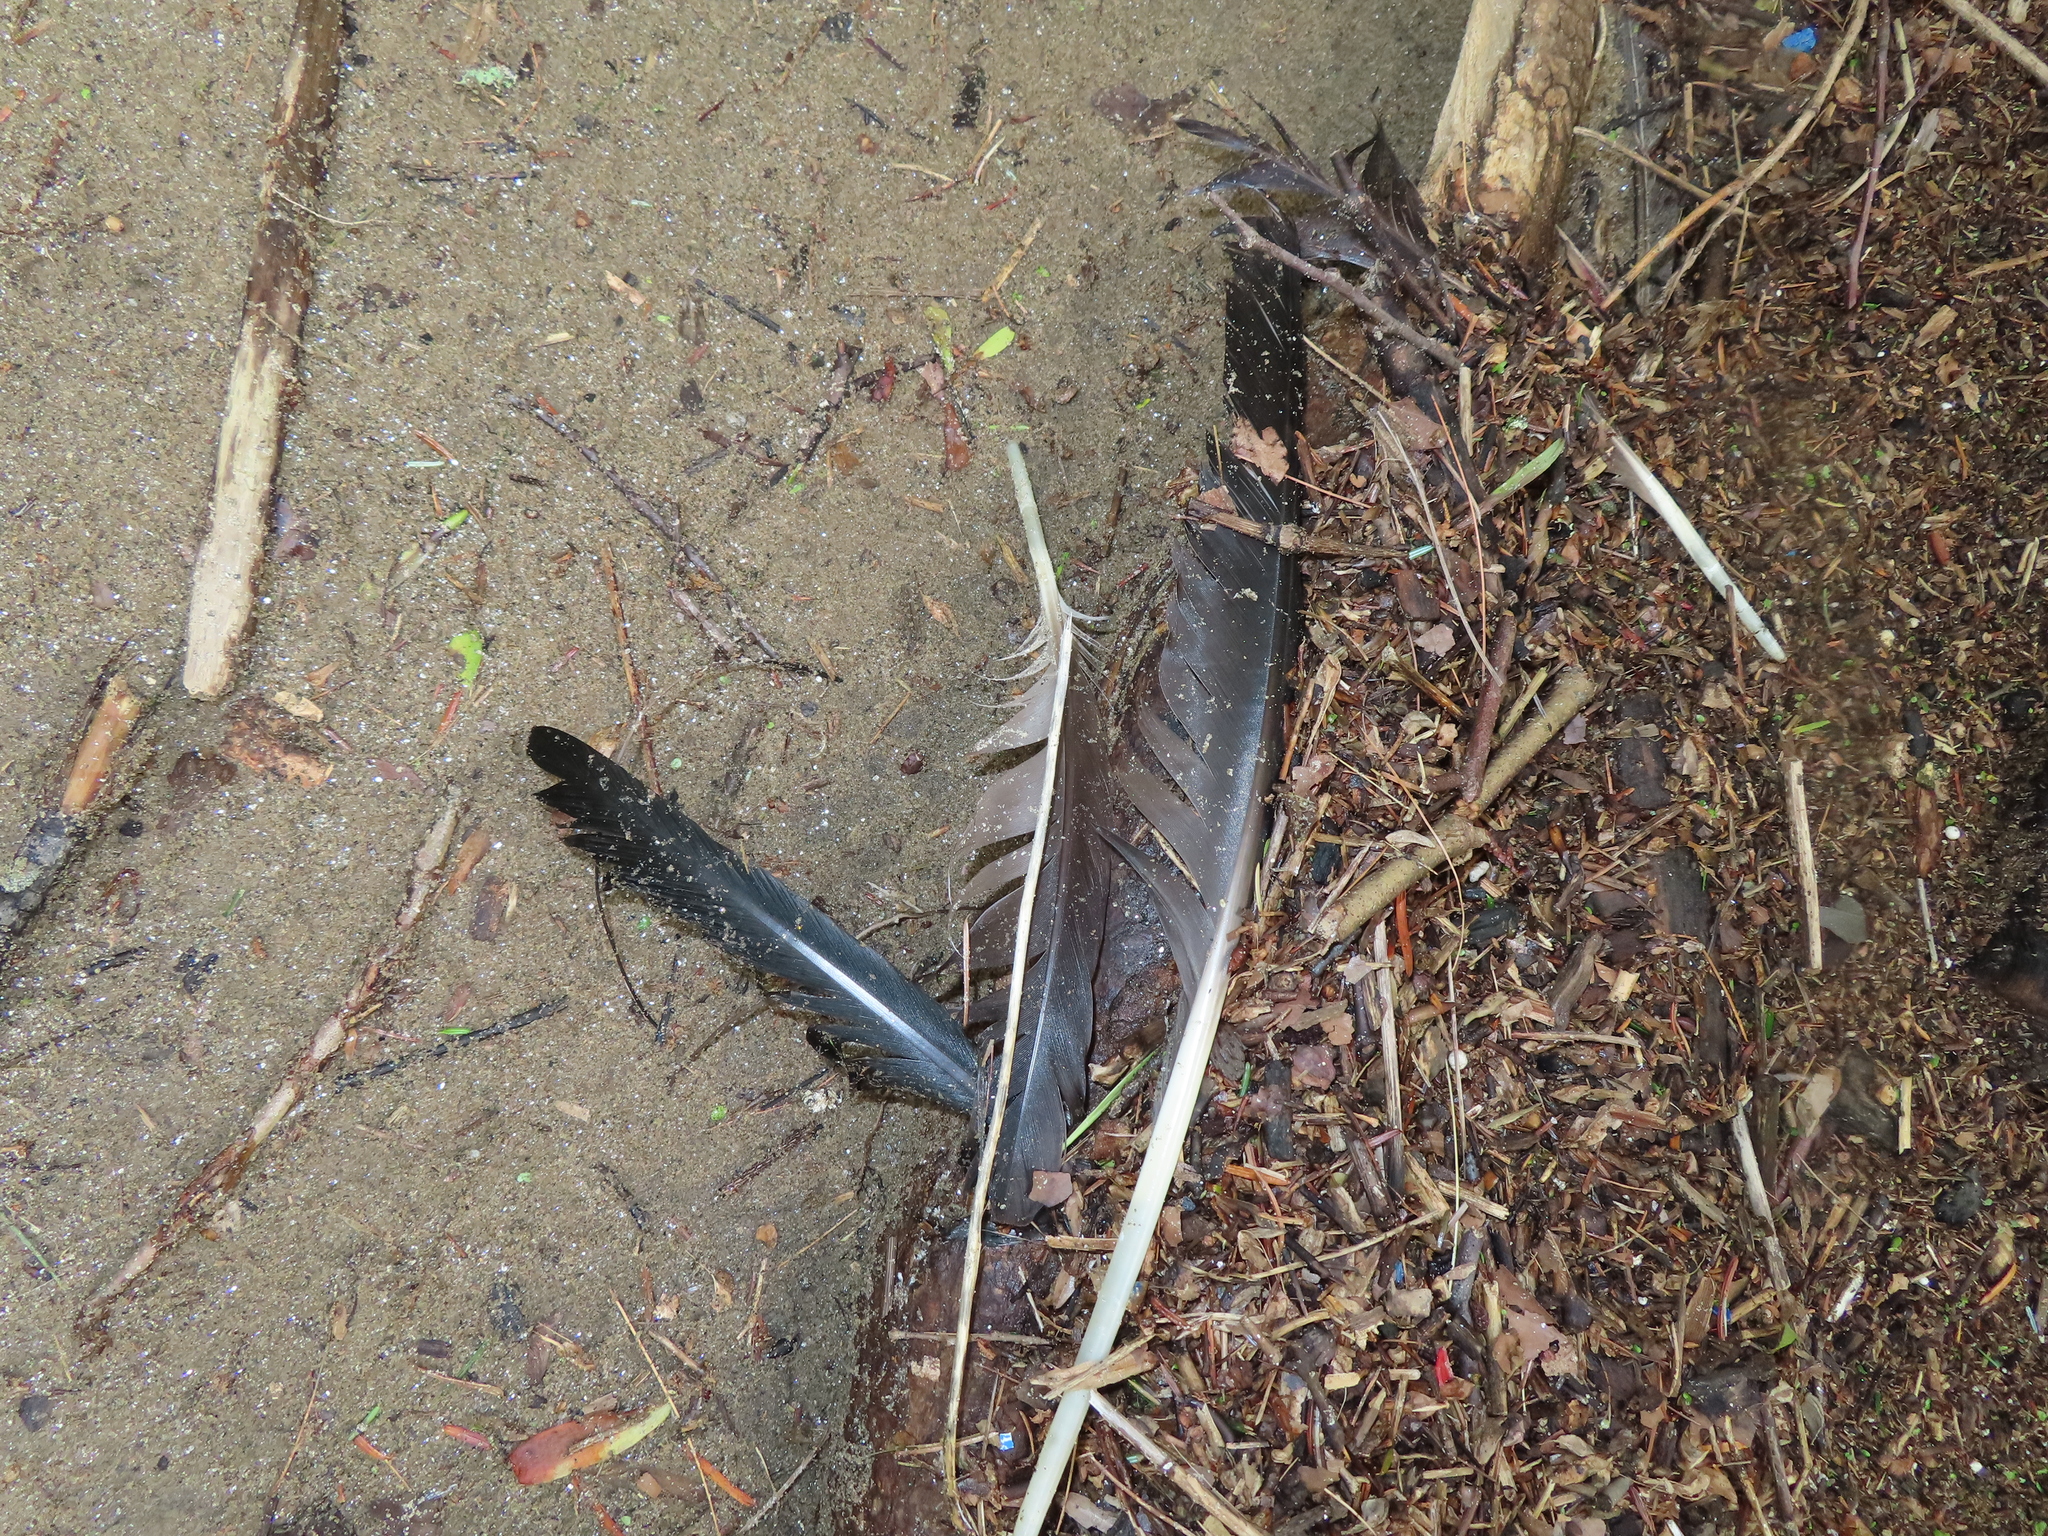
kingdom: Animalia
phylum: Chordata
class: Aves
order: Anseriformes
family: Anatidae
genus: Branta
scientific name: Branta canadensis
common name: Canada goose
